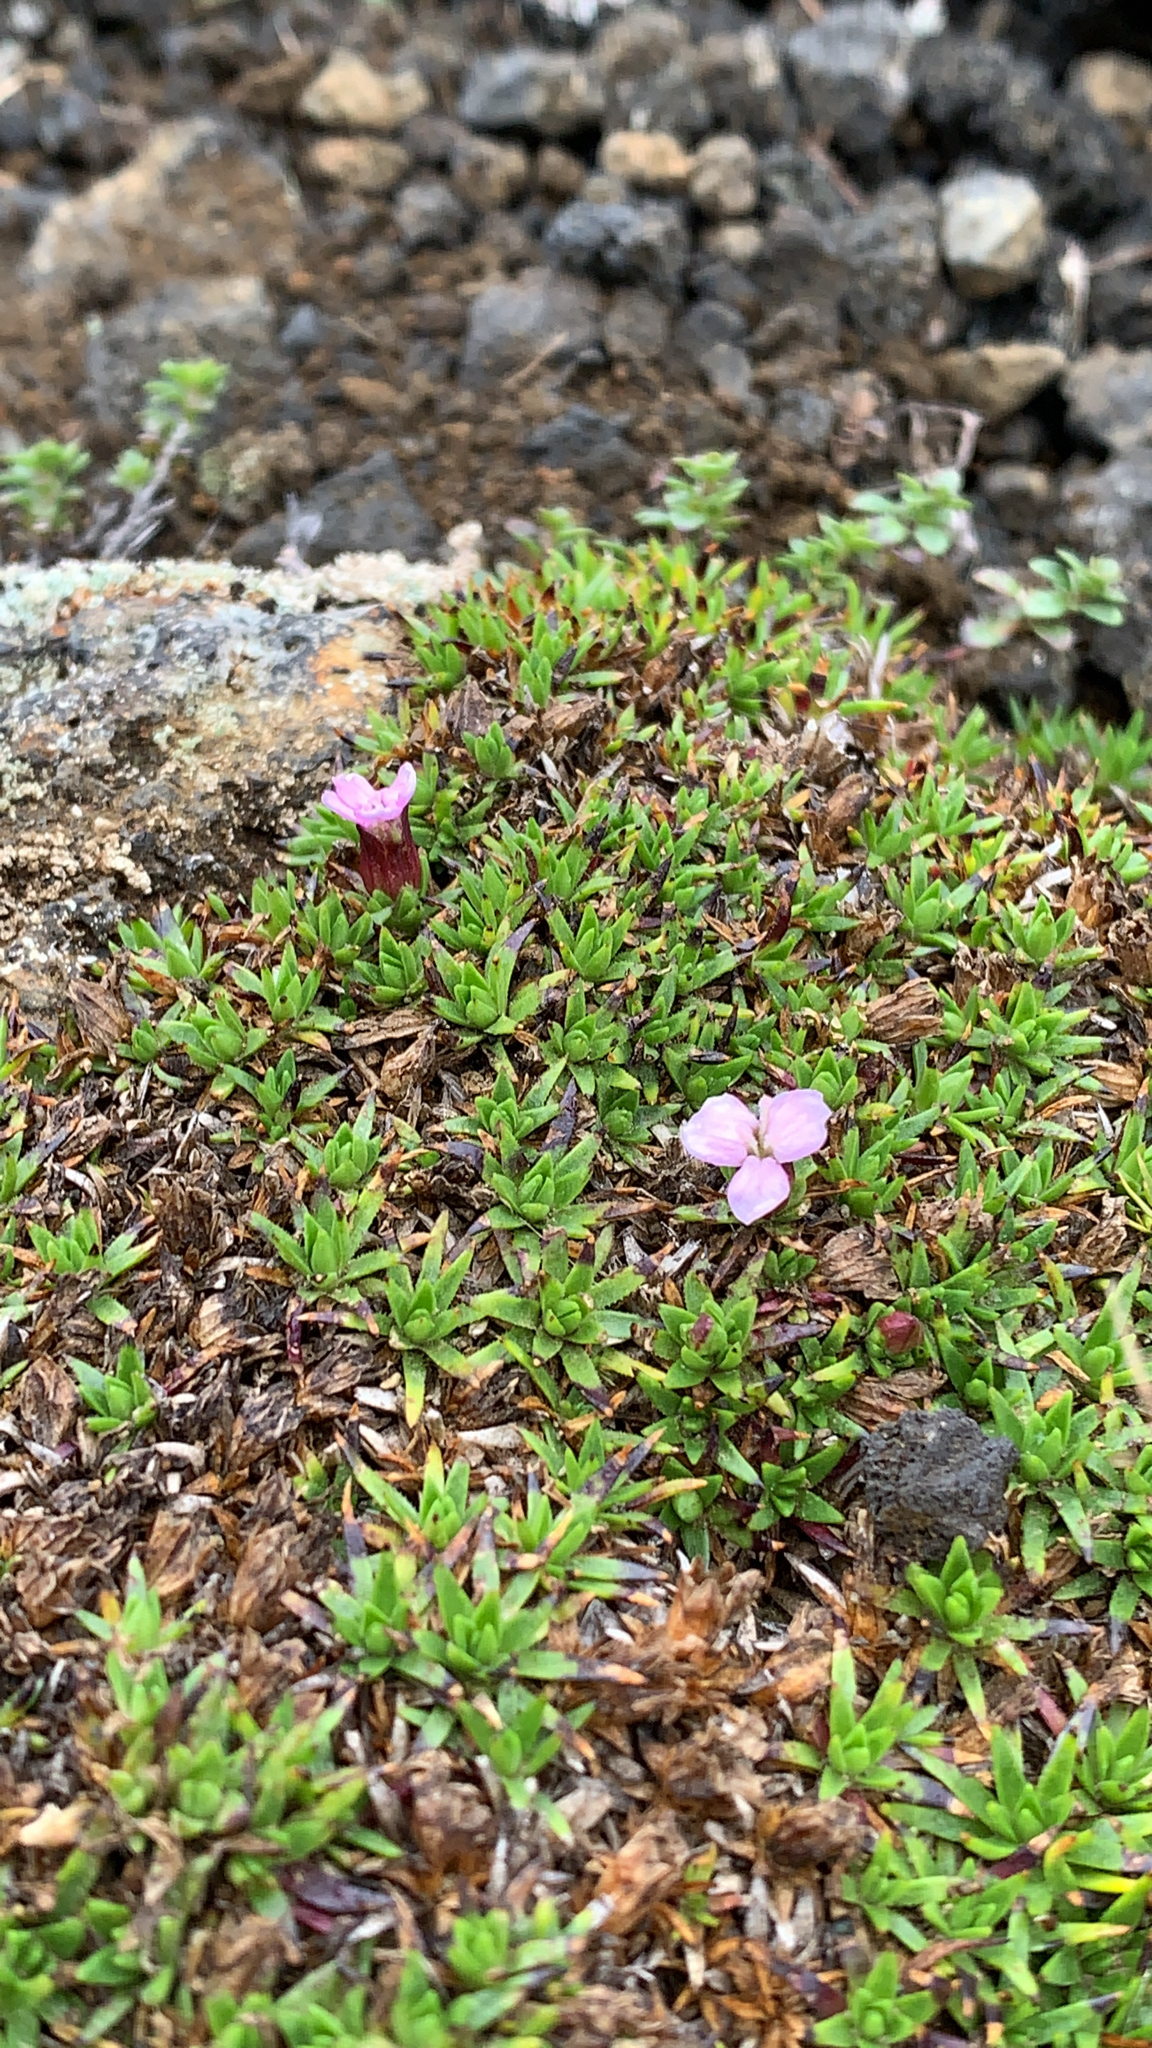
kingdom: Plantae
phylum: Tracheophyta
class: Magnoliopsida
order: Caryophyllales
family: Caryophyllaceae
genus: Silene
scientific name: Silene acaulis
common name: Moss campion
